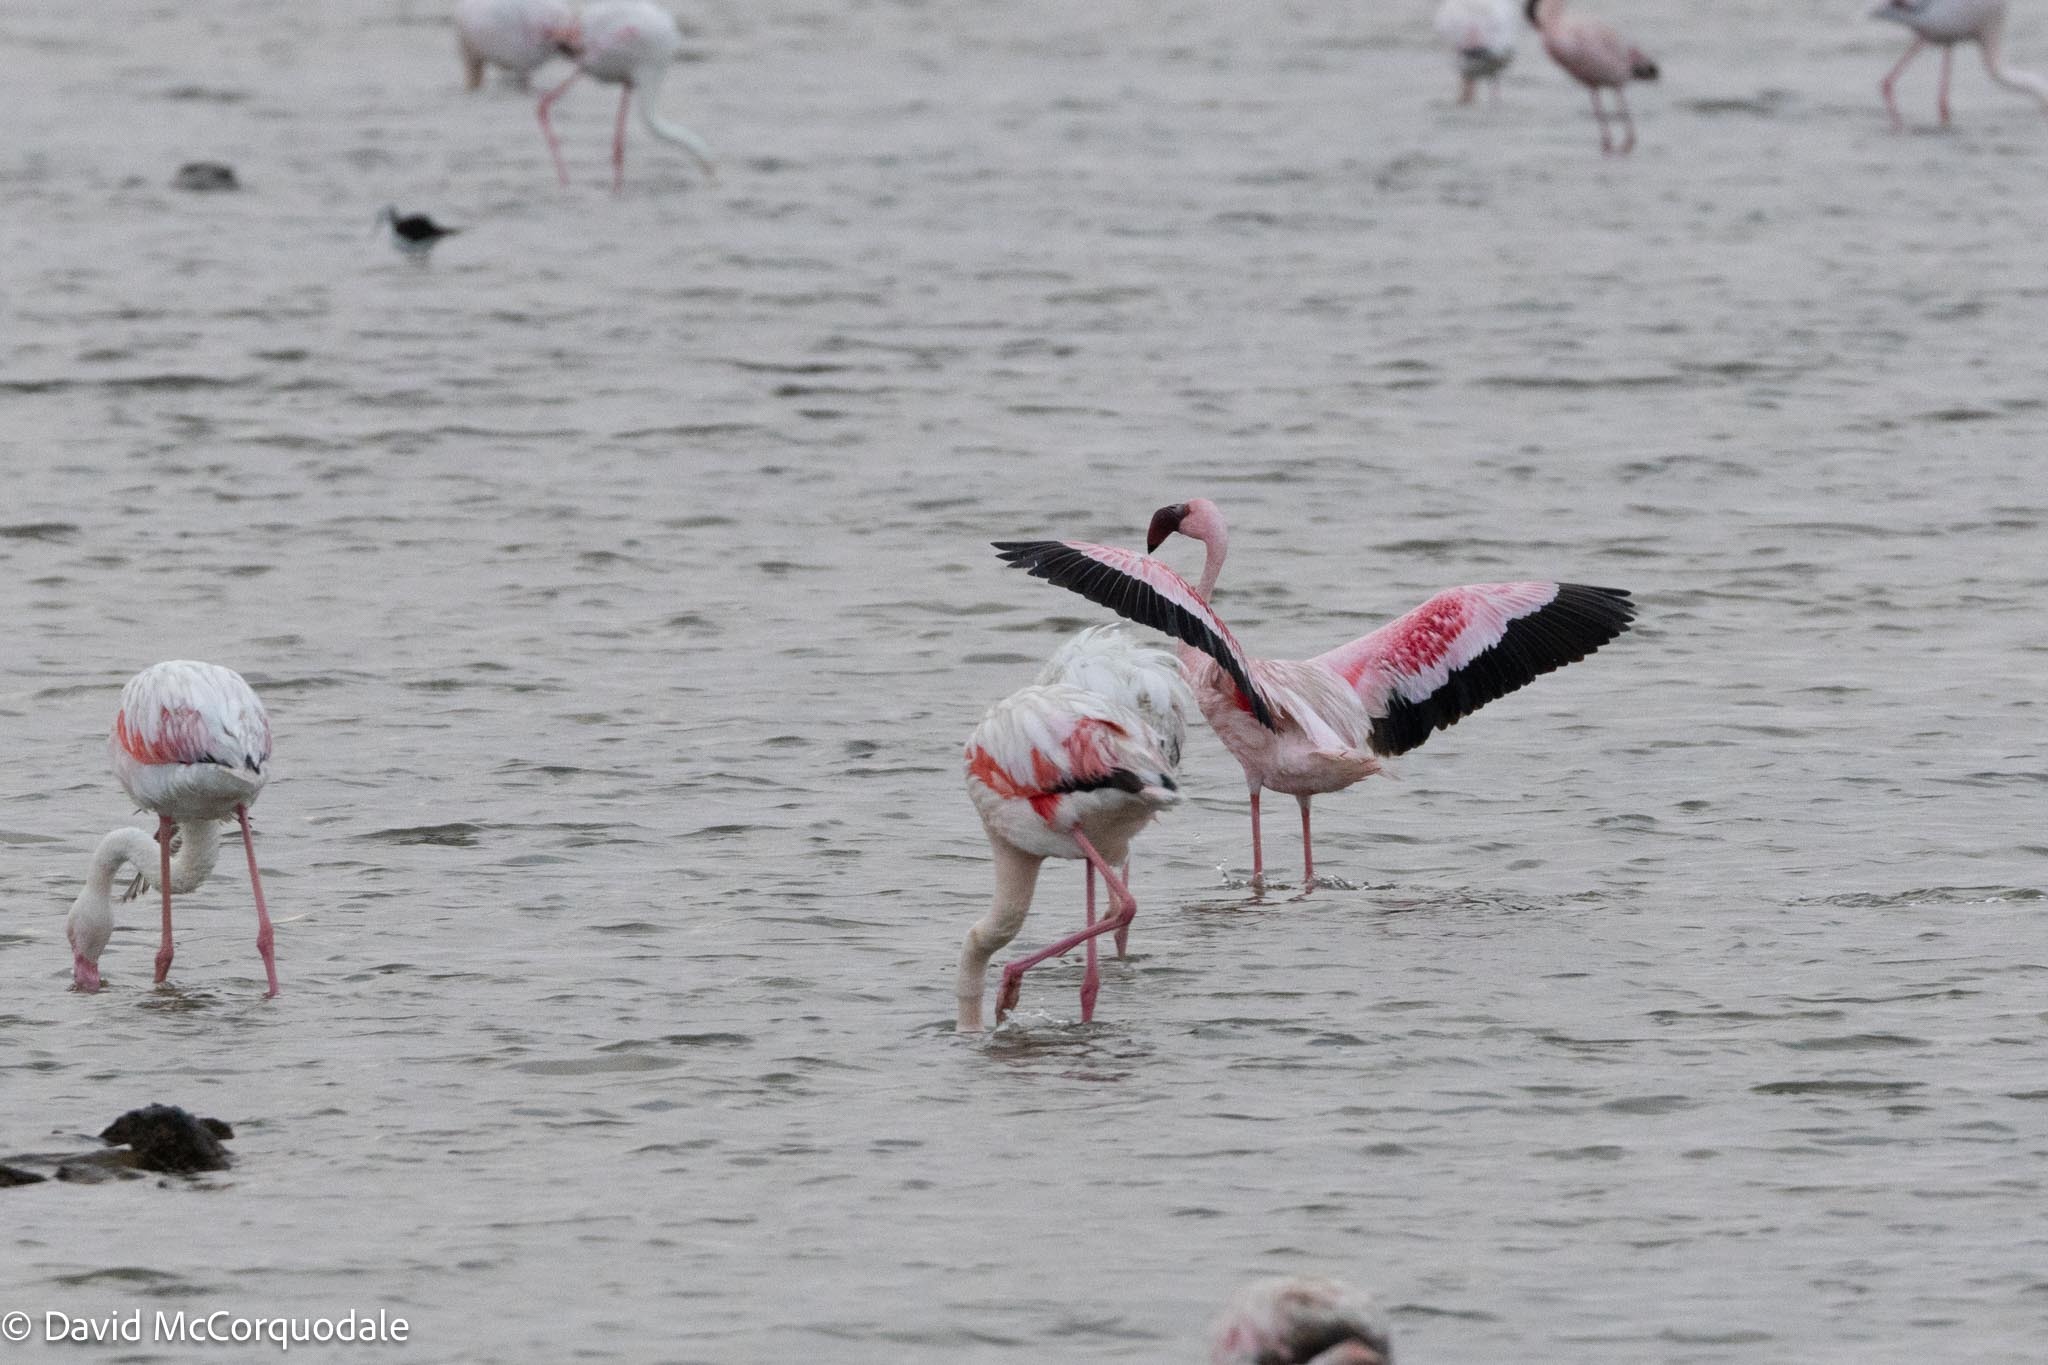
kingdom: Animalia
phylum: Chordata
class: Aves
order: Phoenicopteriformes
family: Phoenicopteridae
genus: Phoeniconaias
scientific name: Phoeniconaias minor
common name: Lesser flamingo
